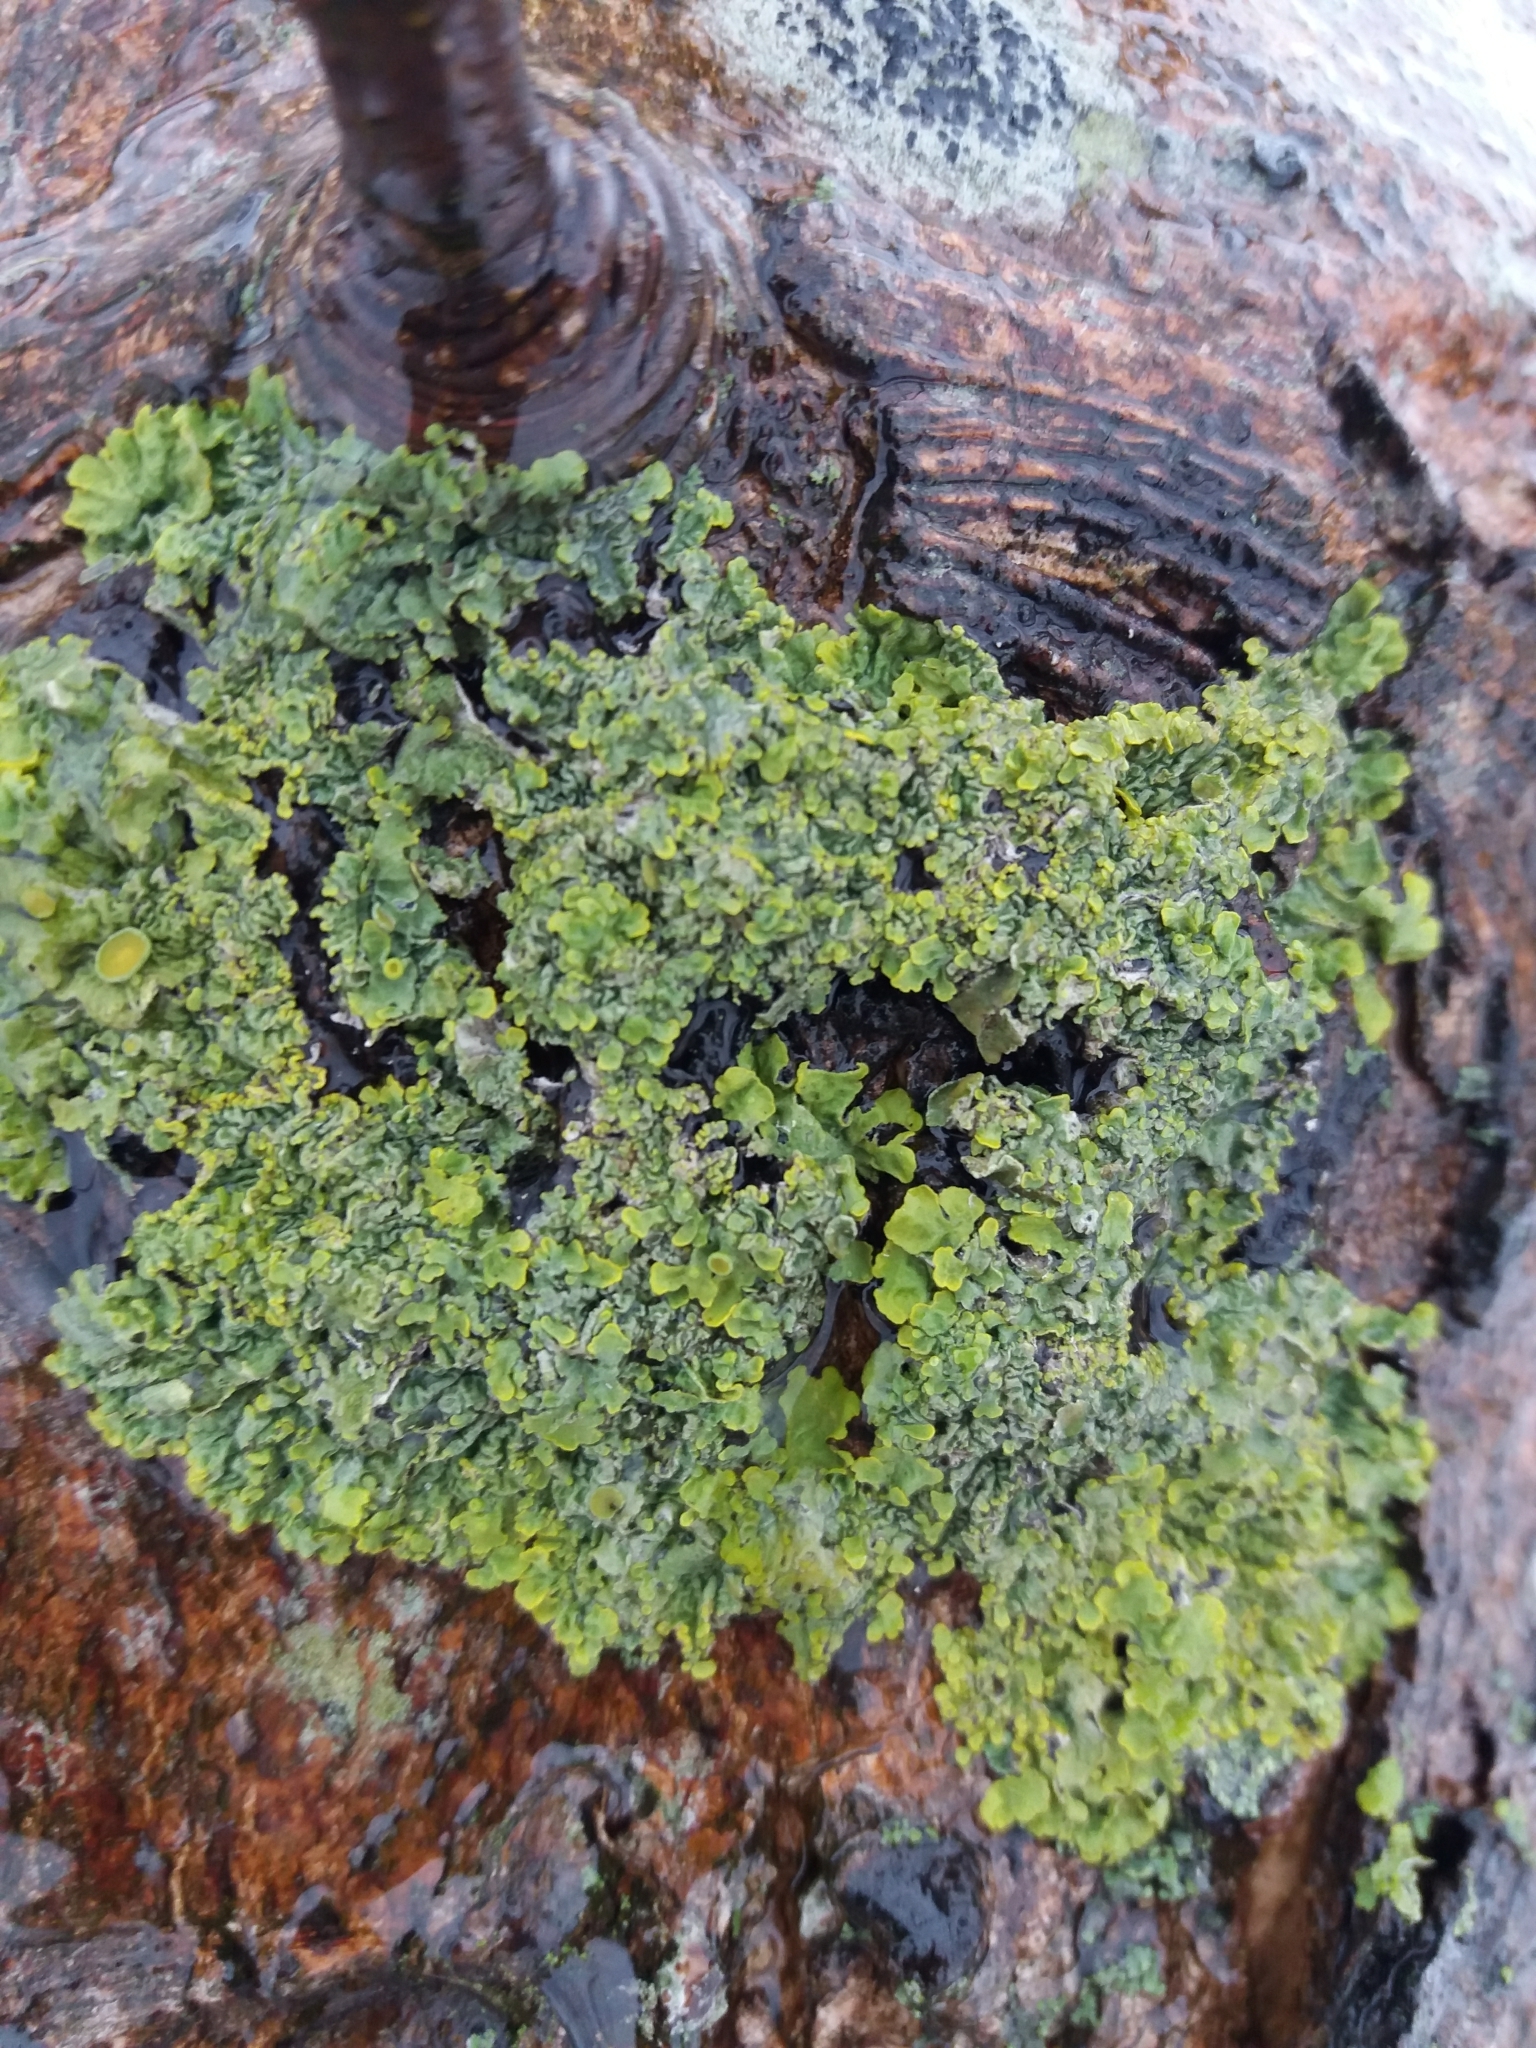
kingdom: Fungi
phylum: Ascomycota
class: Lecanoromycetes
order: Teloschistales
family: Teloschistaceae
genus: Xanthoria
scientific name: Xanthoria parietina
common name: Common orange lichen
